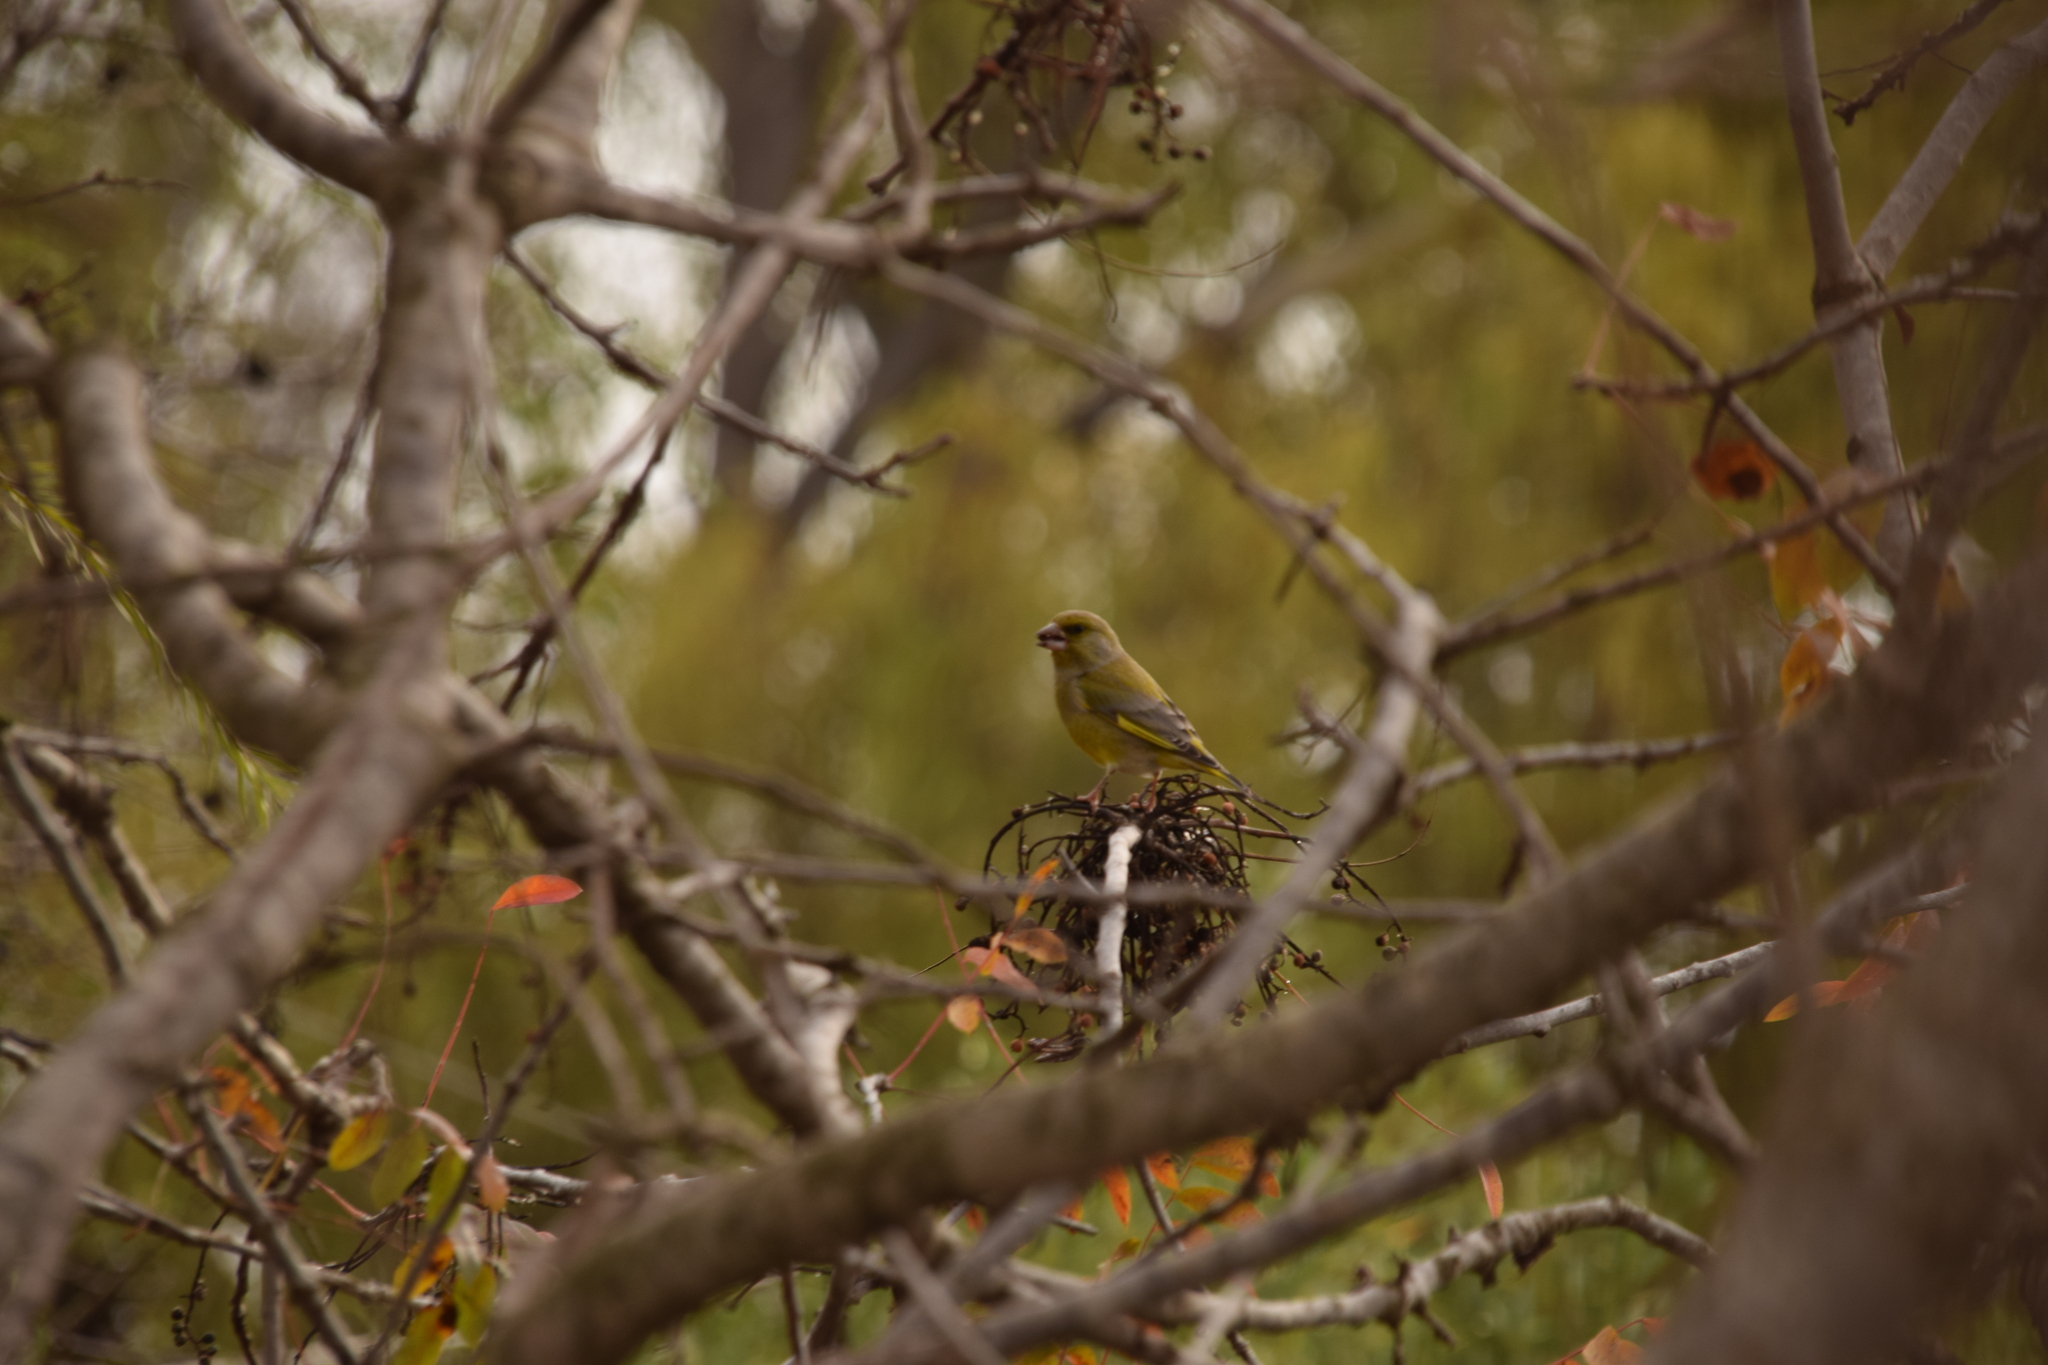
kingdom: Plantae
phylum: Tracheophyta
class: Liliopsida
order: Poales
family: Poaceae
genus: Chloris
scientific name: Chloris chloris
